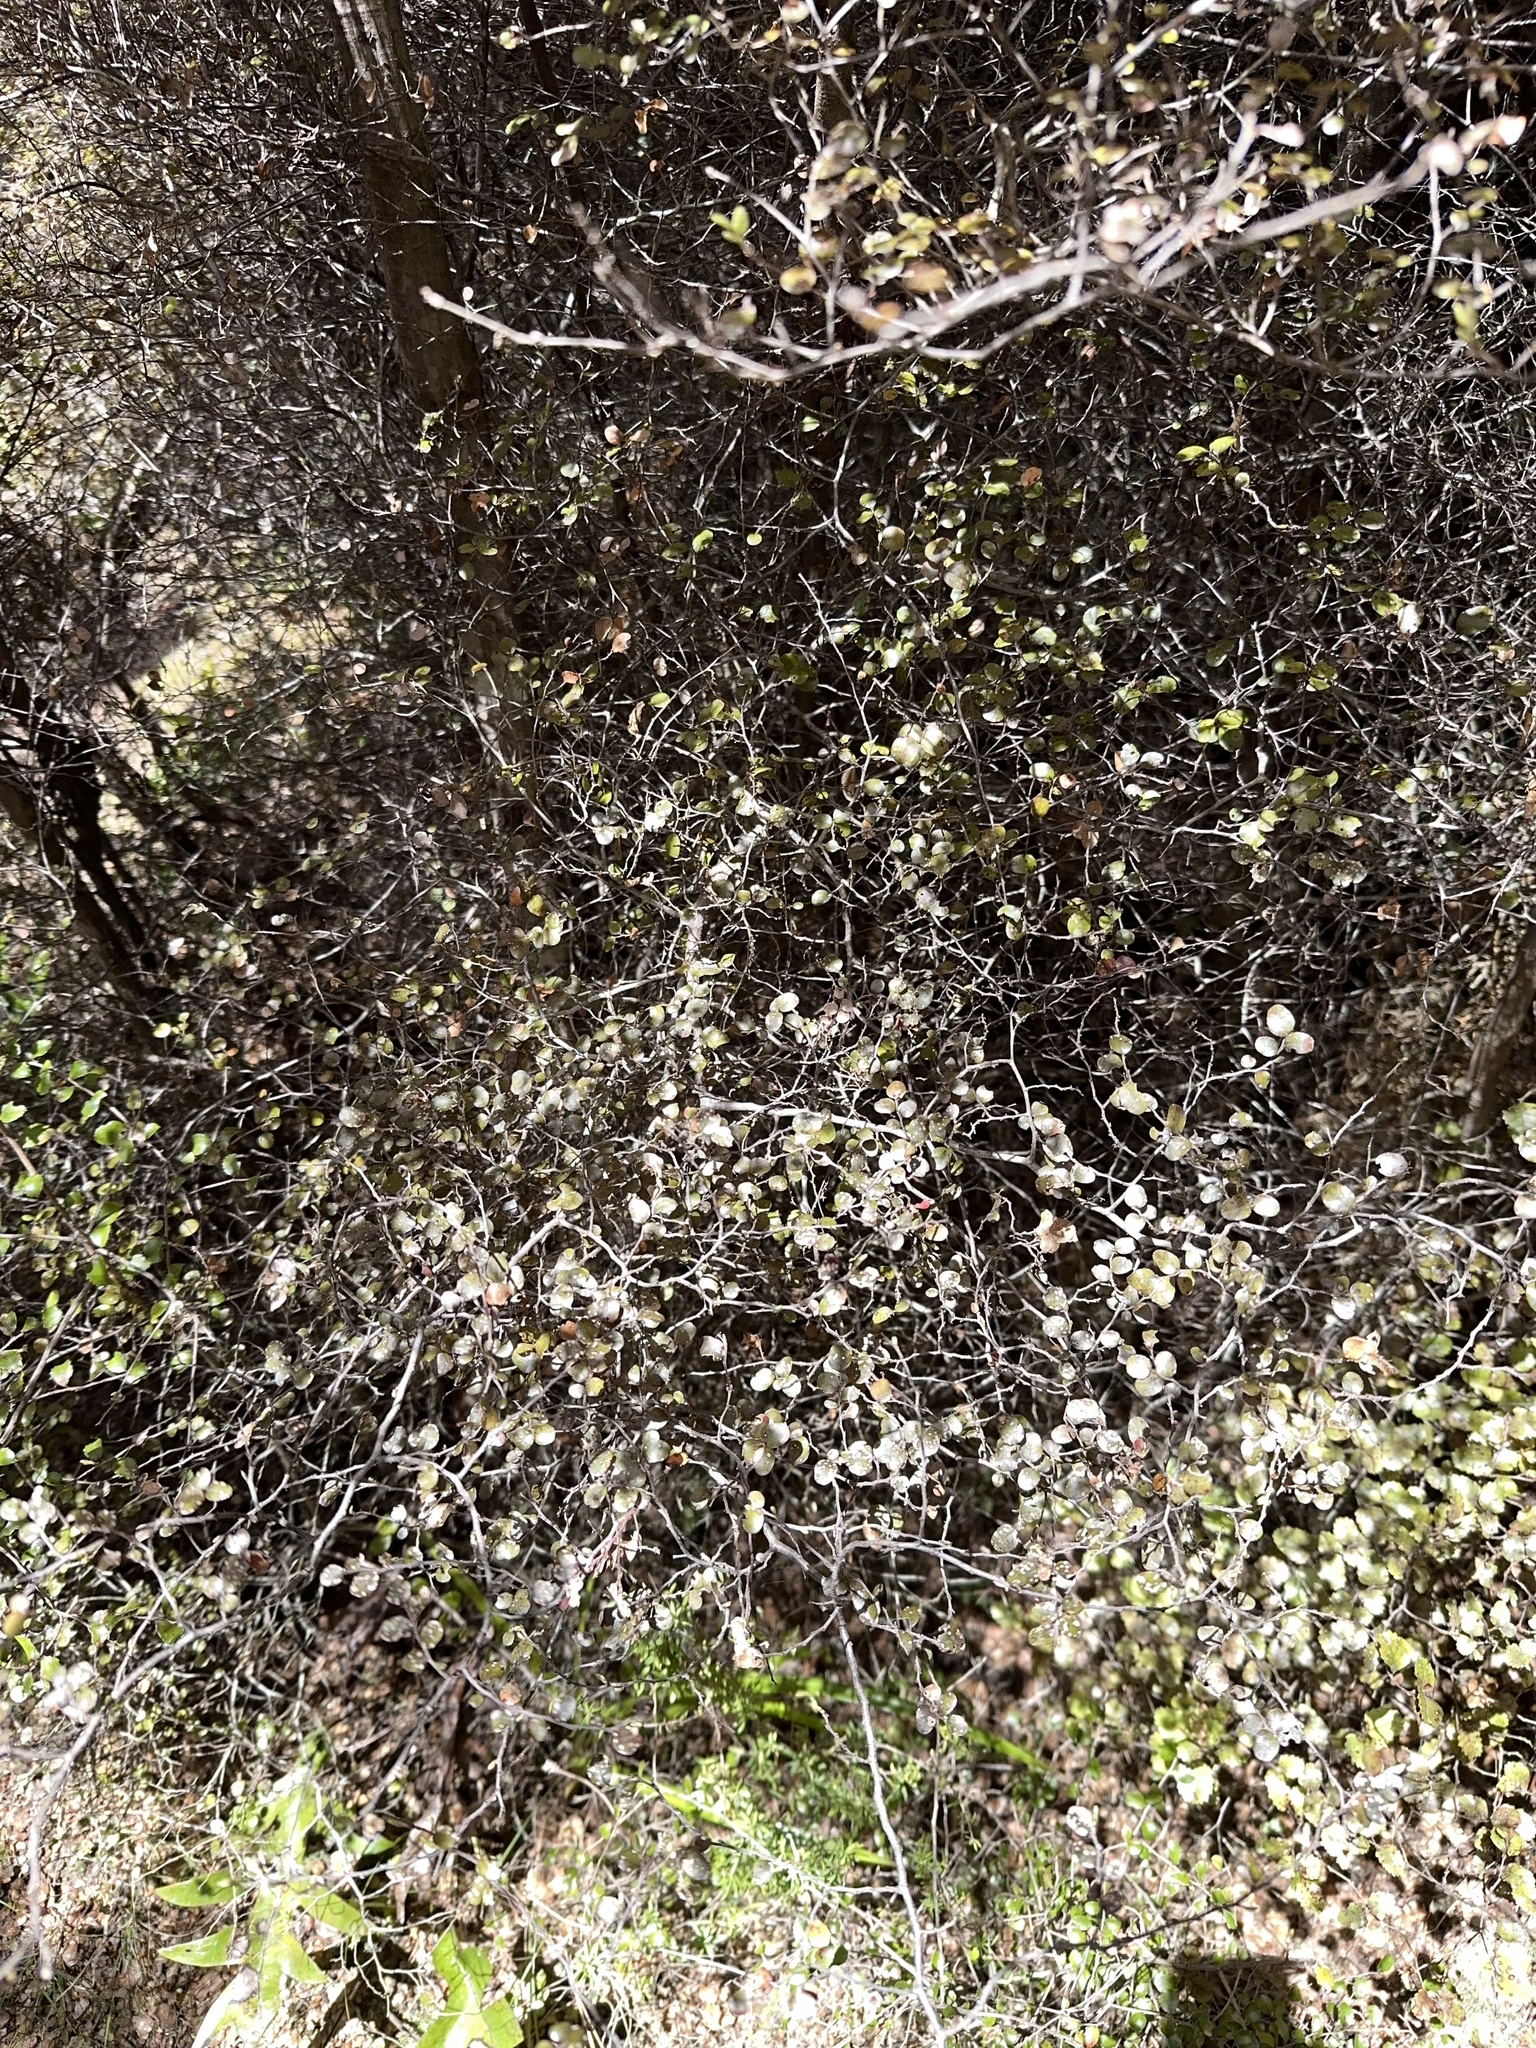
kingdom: Plantae
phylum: Tracheophyta
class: Magnoliopsida
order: Fagales
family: Nothofagaceae
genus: Nothofagus
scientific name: Nothofagus solandri
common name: Black beech
